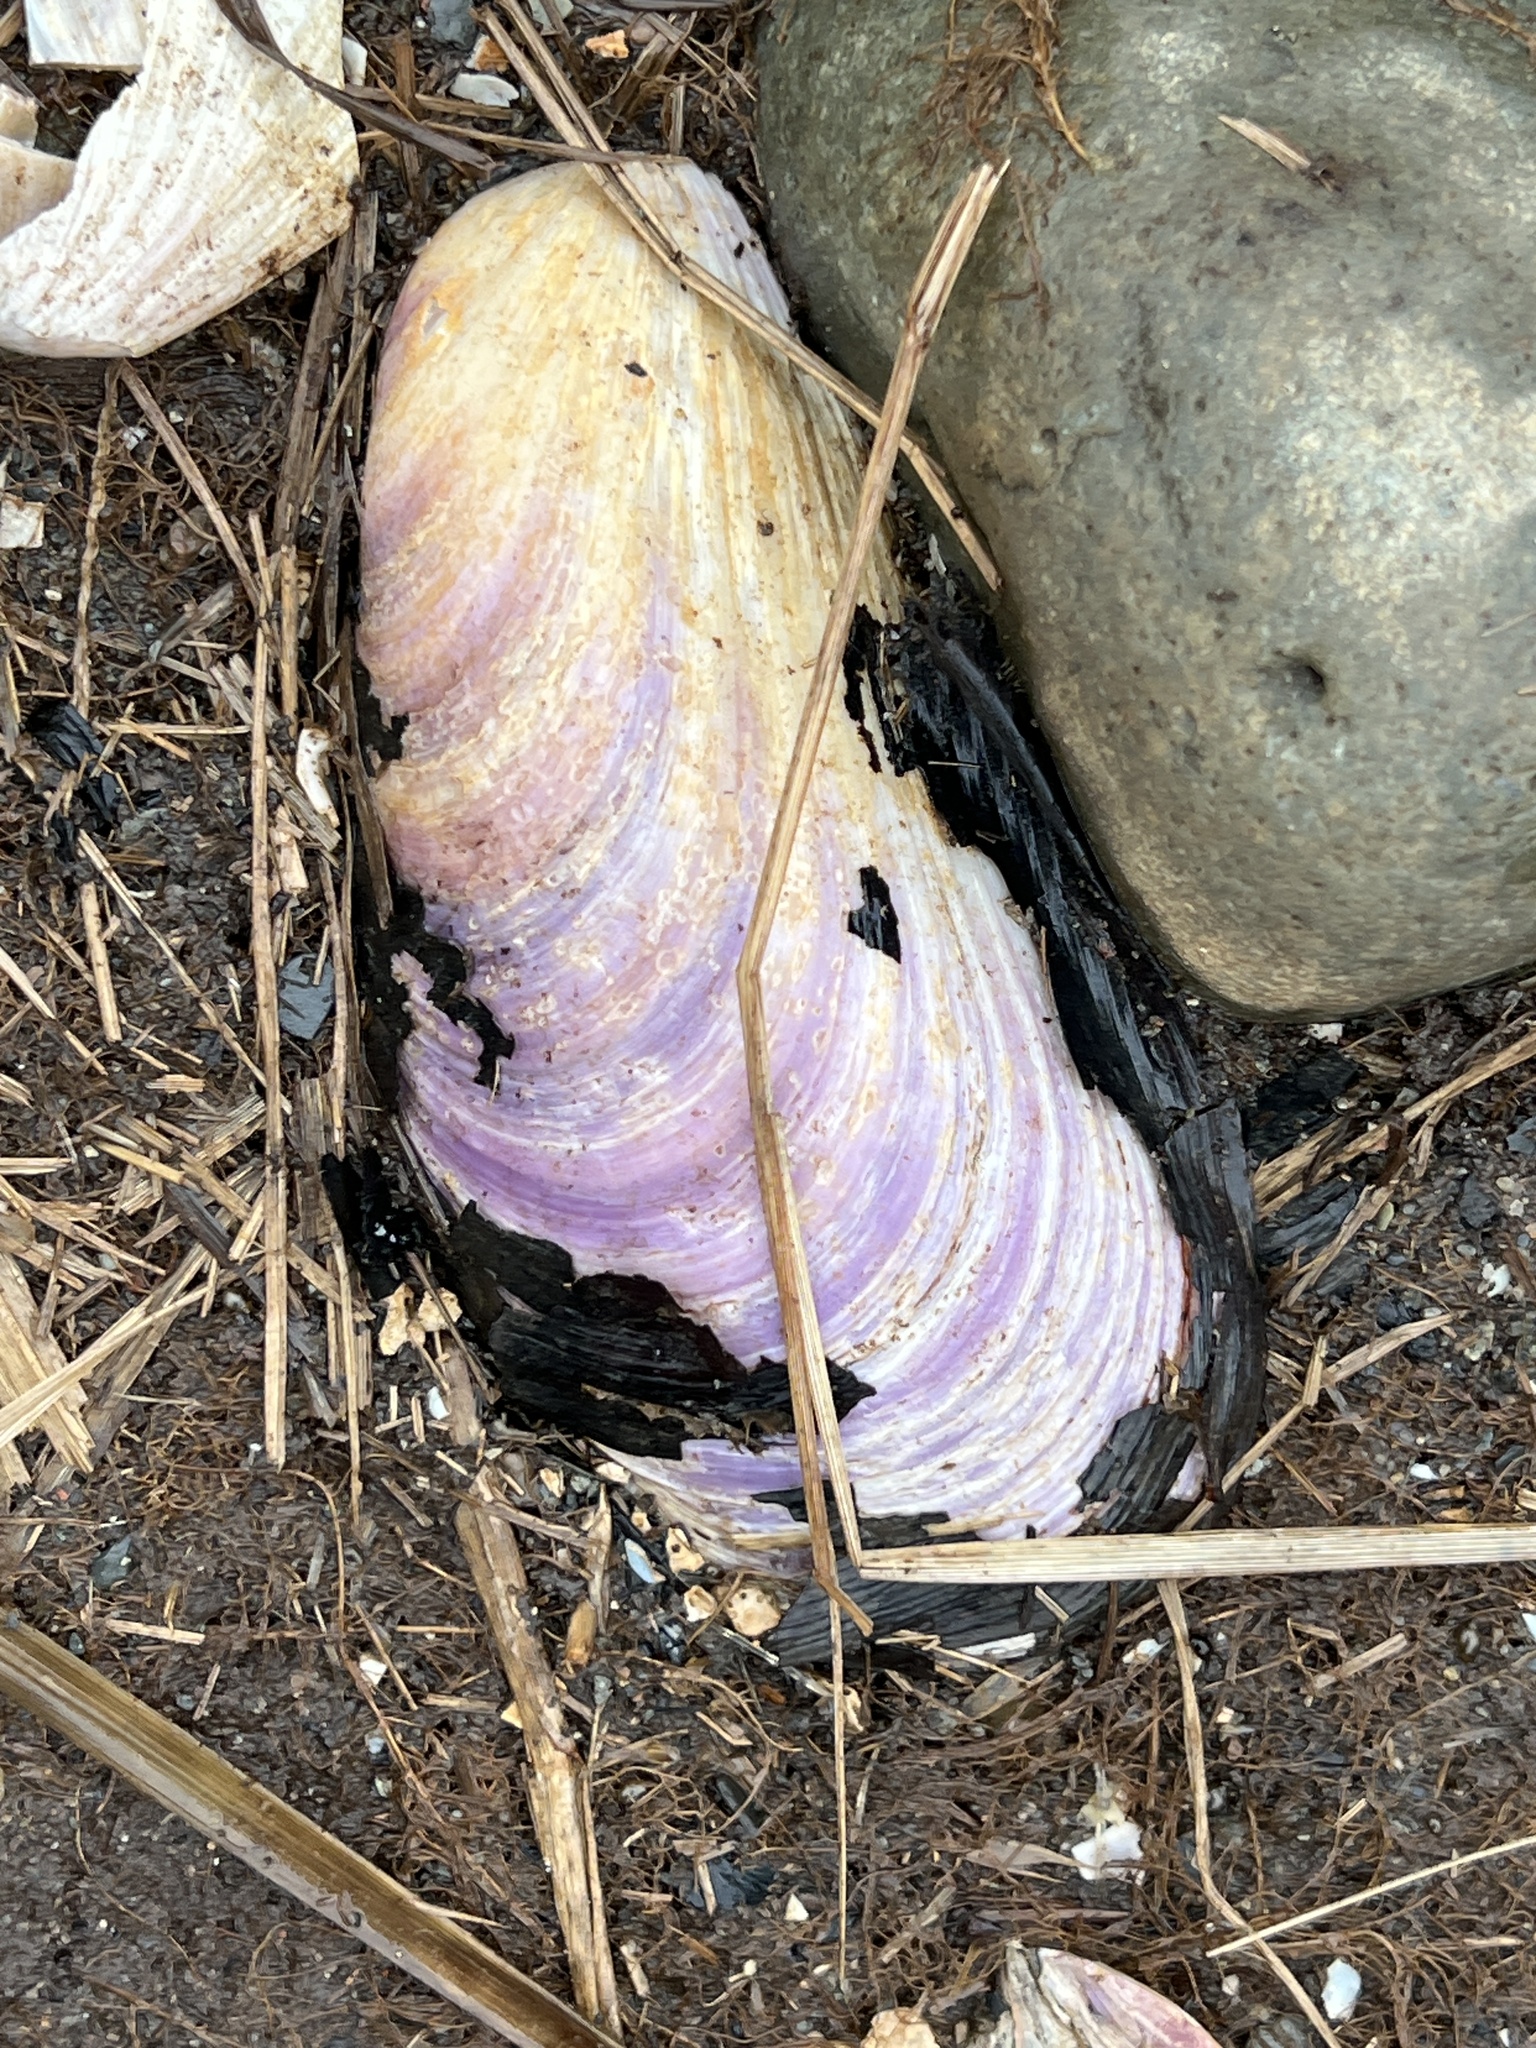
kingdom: Animalia
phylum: Mollusca
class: Bivalvia
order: Mytilida
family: Mytilidae
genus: Modiolus
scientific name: Modiolus modiolus
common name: Horse-mussel
